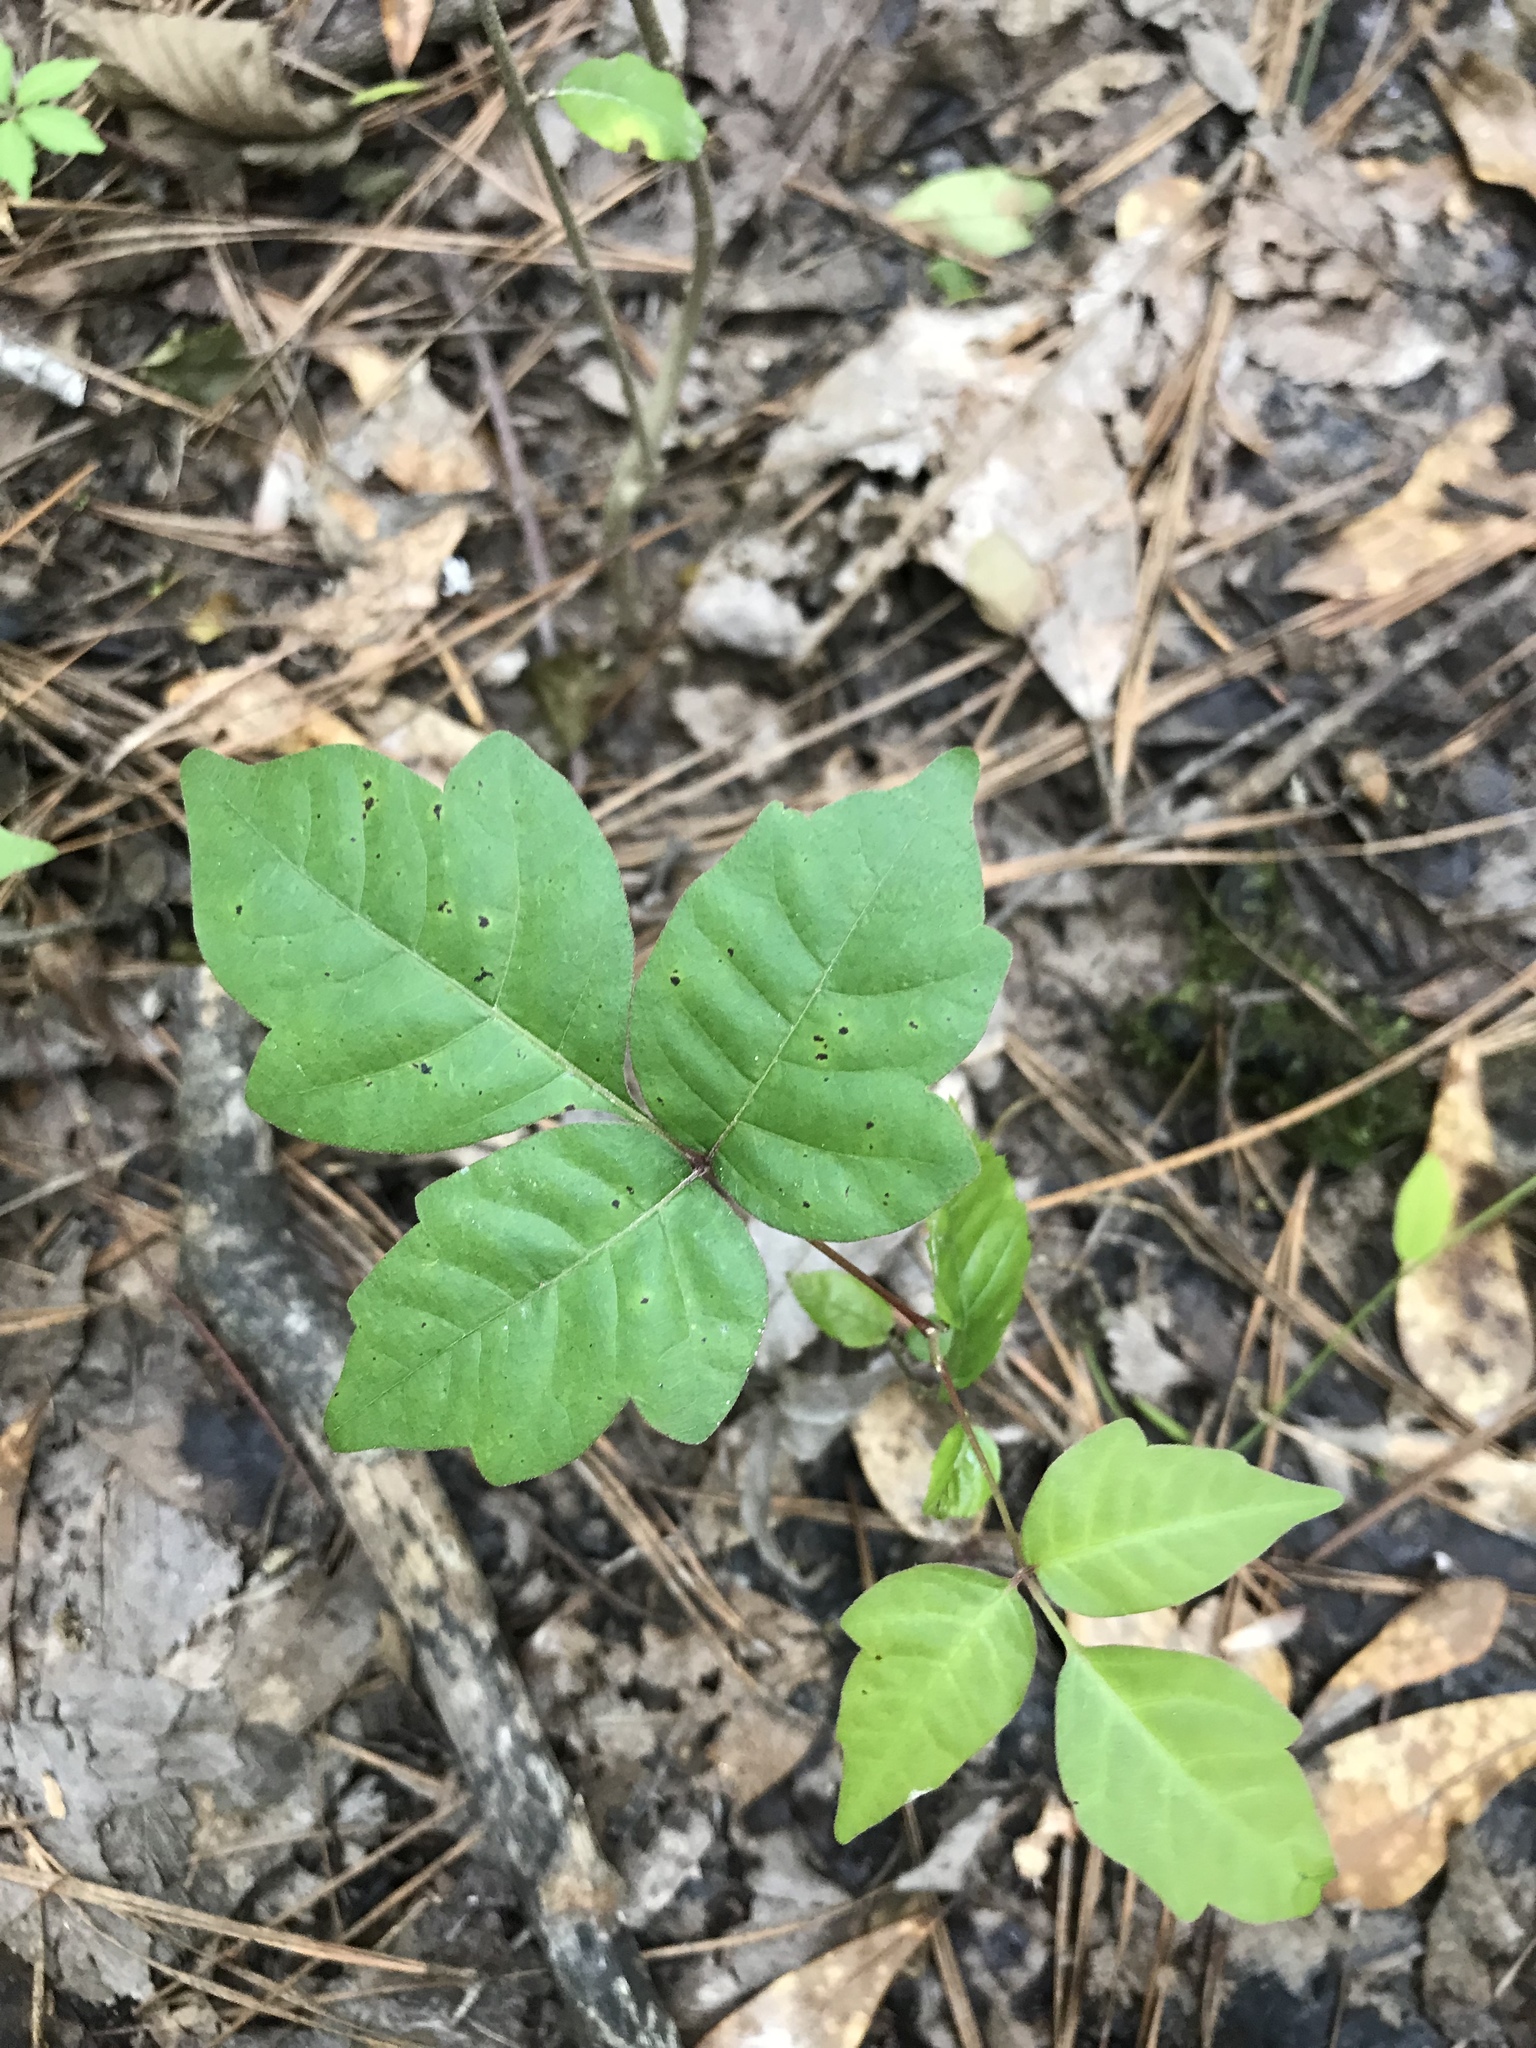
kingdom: Plantae
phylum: Tracheophyta
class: Magnoliopsida
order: Sapindales
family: Anacardiaceae
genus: Toxicodendron
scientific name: Toxicodendron radicans
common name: Poison ivy
